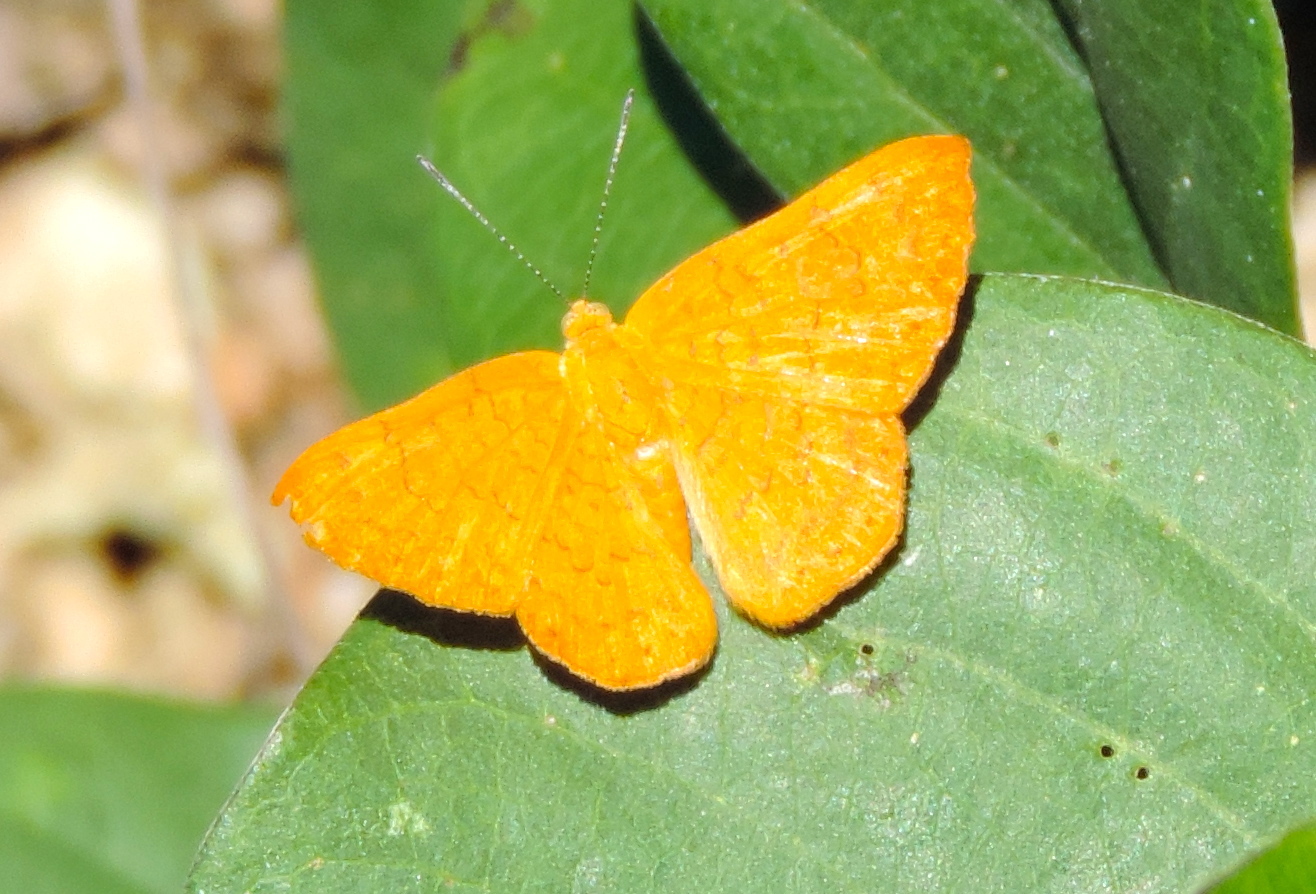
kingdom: Animalia
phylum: Arthropoda
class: Insecta
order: Lepidoptera
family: Lycaenidae
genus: Emesis
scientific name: Emesis
